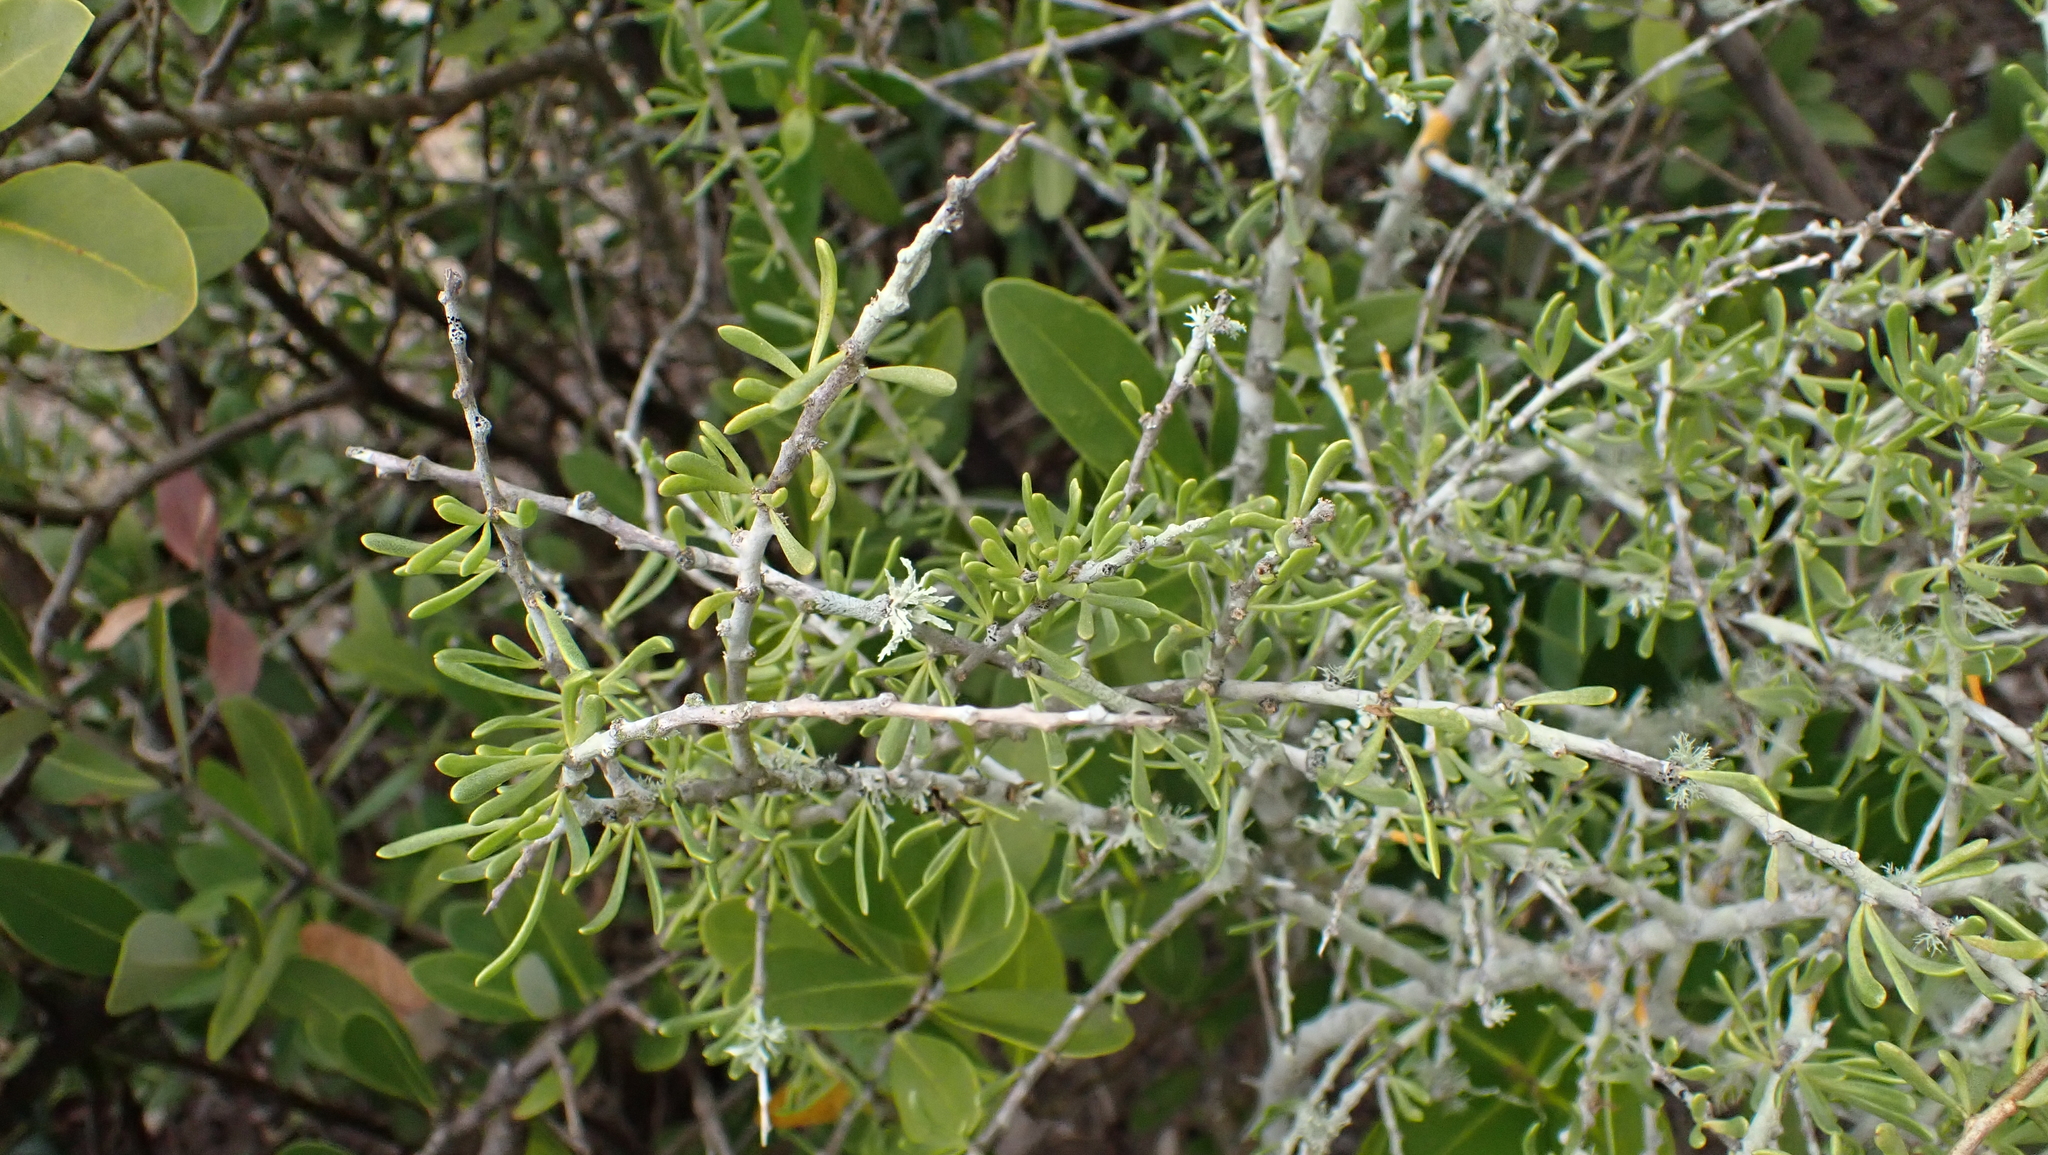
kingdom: Plantae
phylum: Tracheophyta
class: Magnoliopsida
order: Solanales
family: Solanaceae
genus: Lycium
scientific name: Lycium carolinianum
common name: Christmasberry
